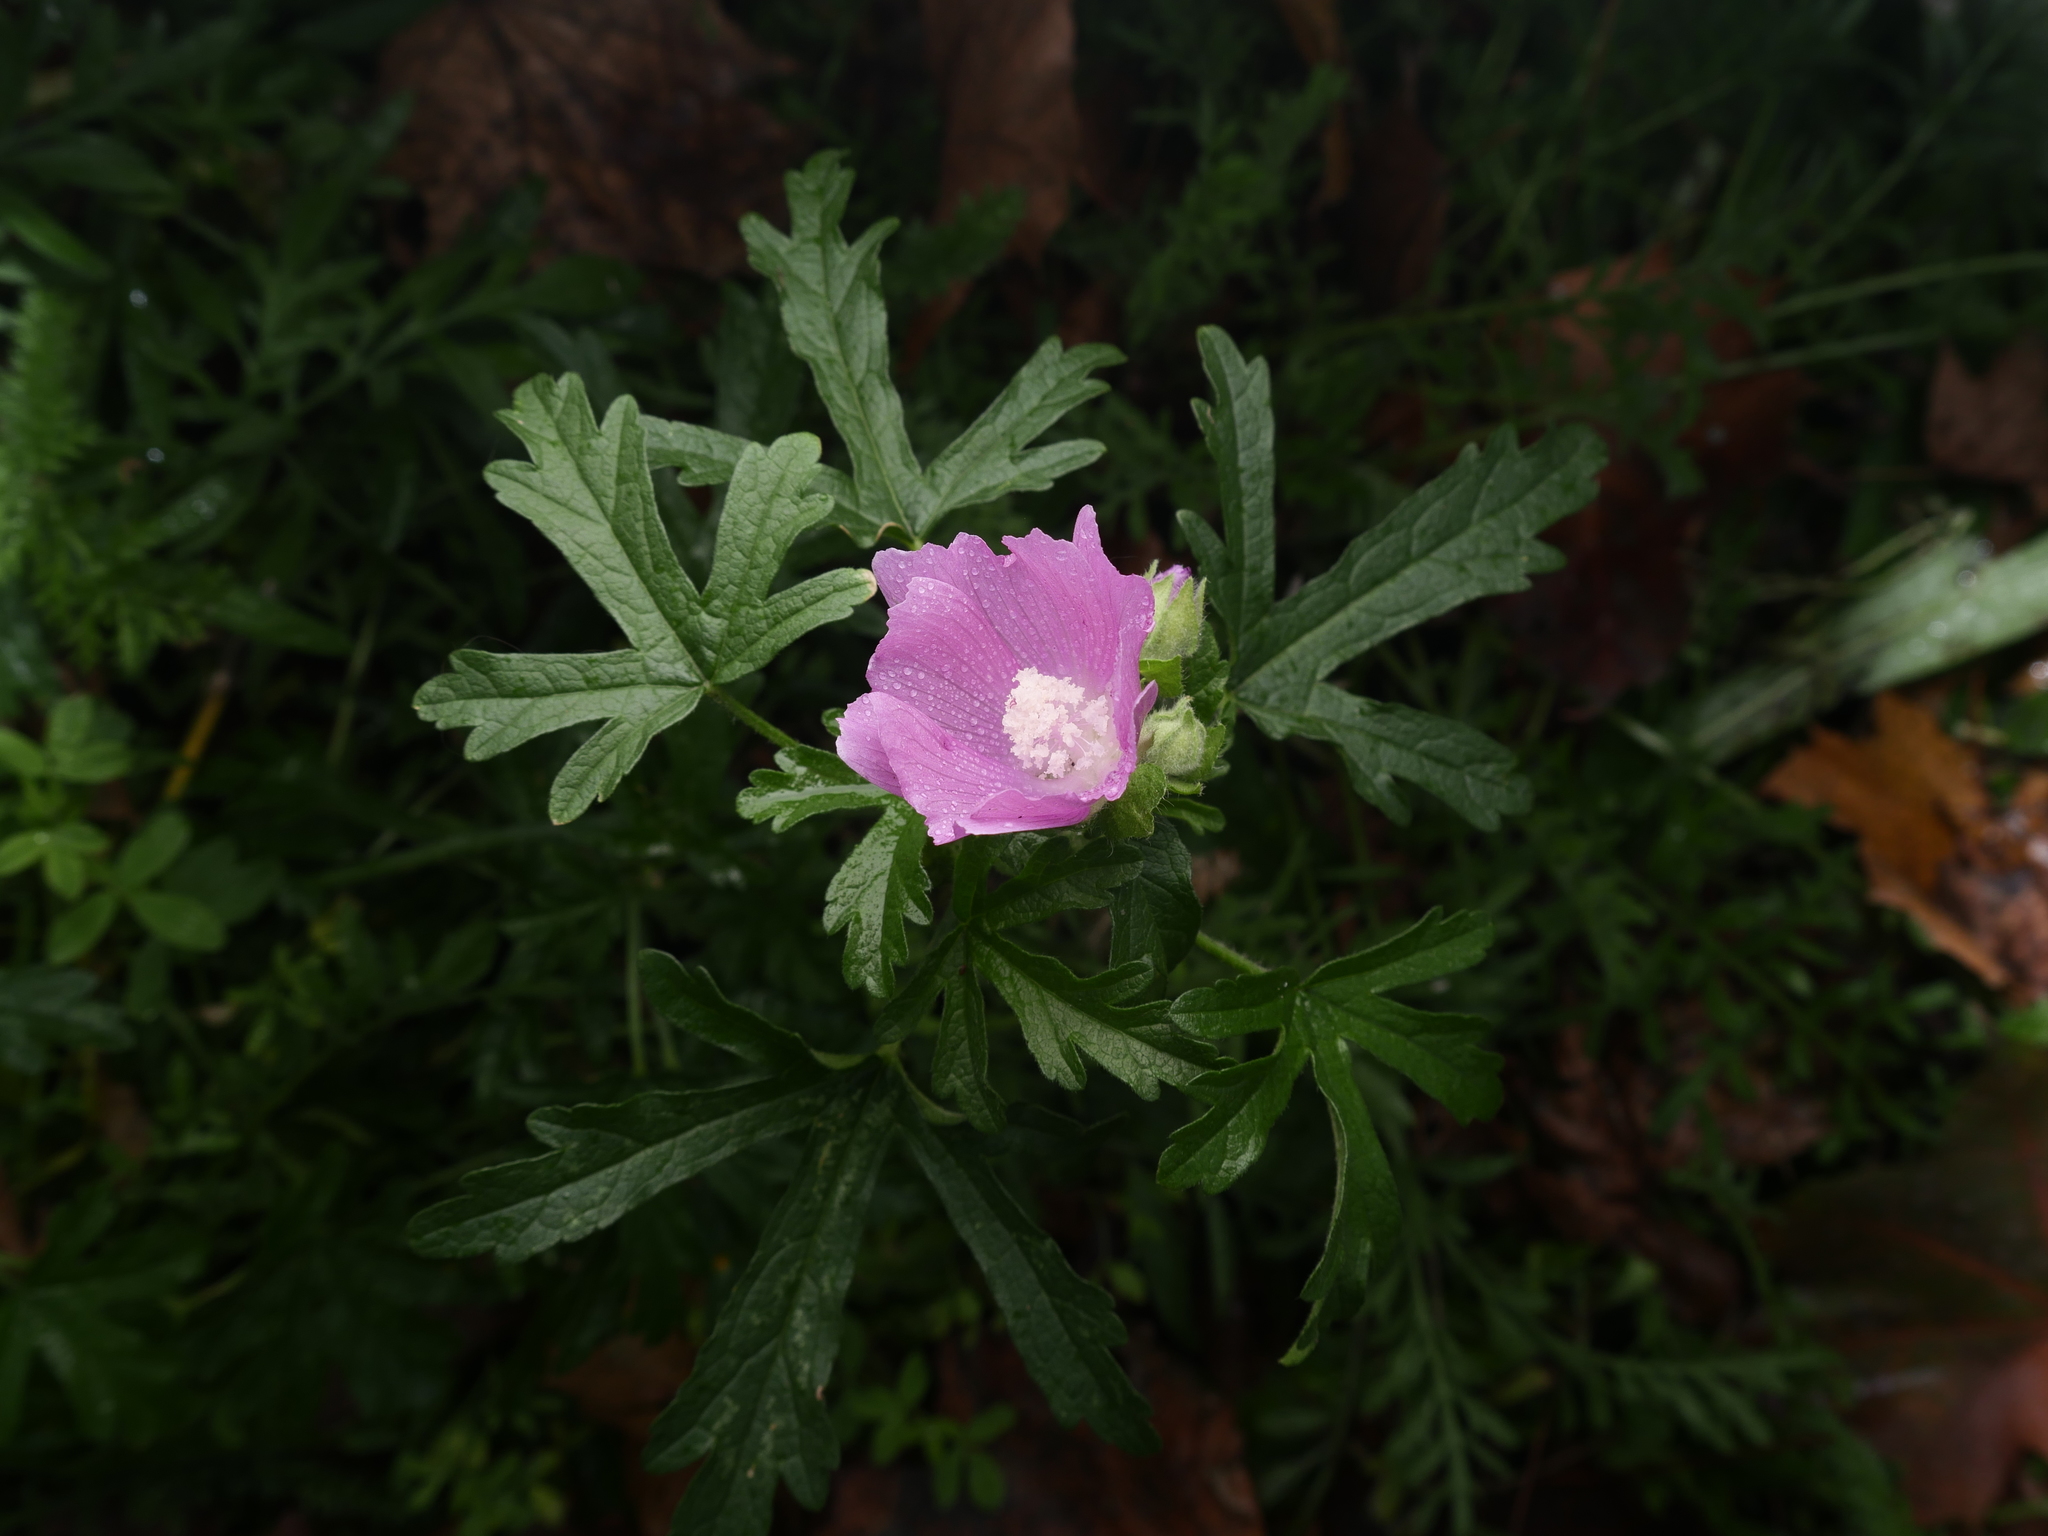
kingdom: Plantae
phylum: Tracheophyta
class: Magnoliopsida
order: Malvales
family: Malvaceae
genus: Malva
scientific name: Malva moschata
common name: Musk mallow
